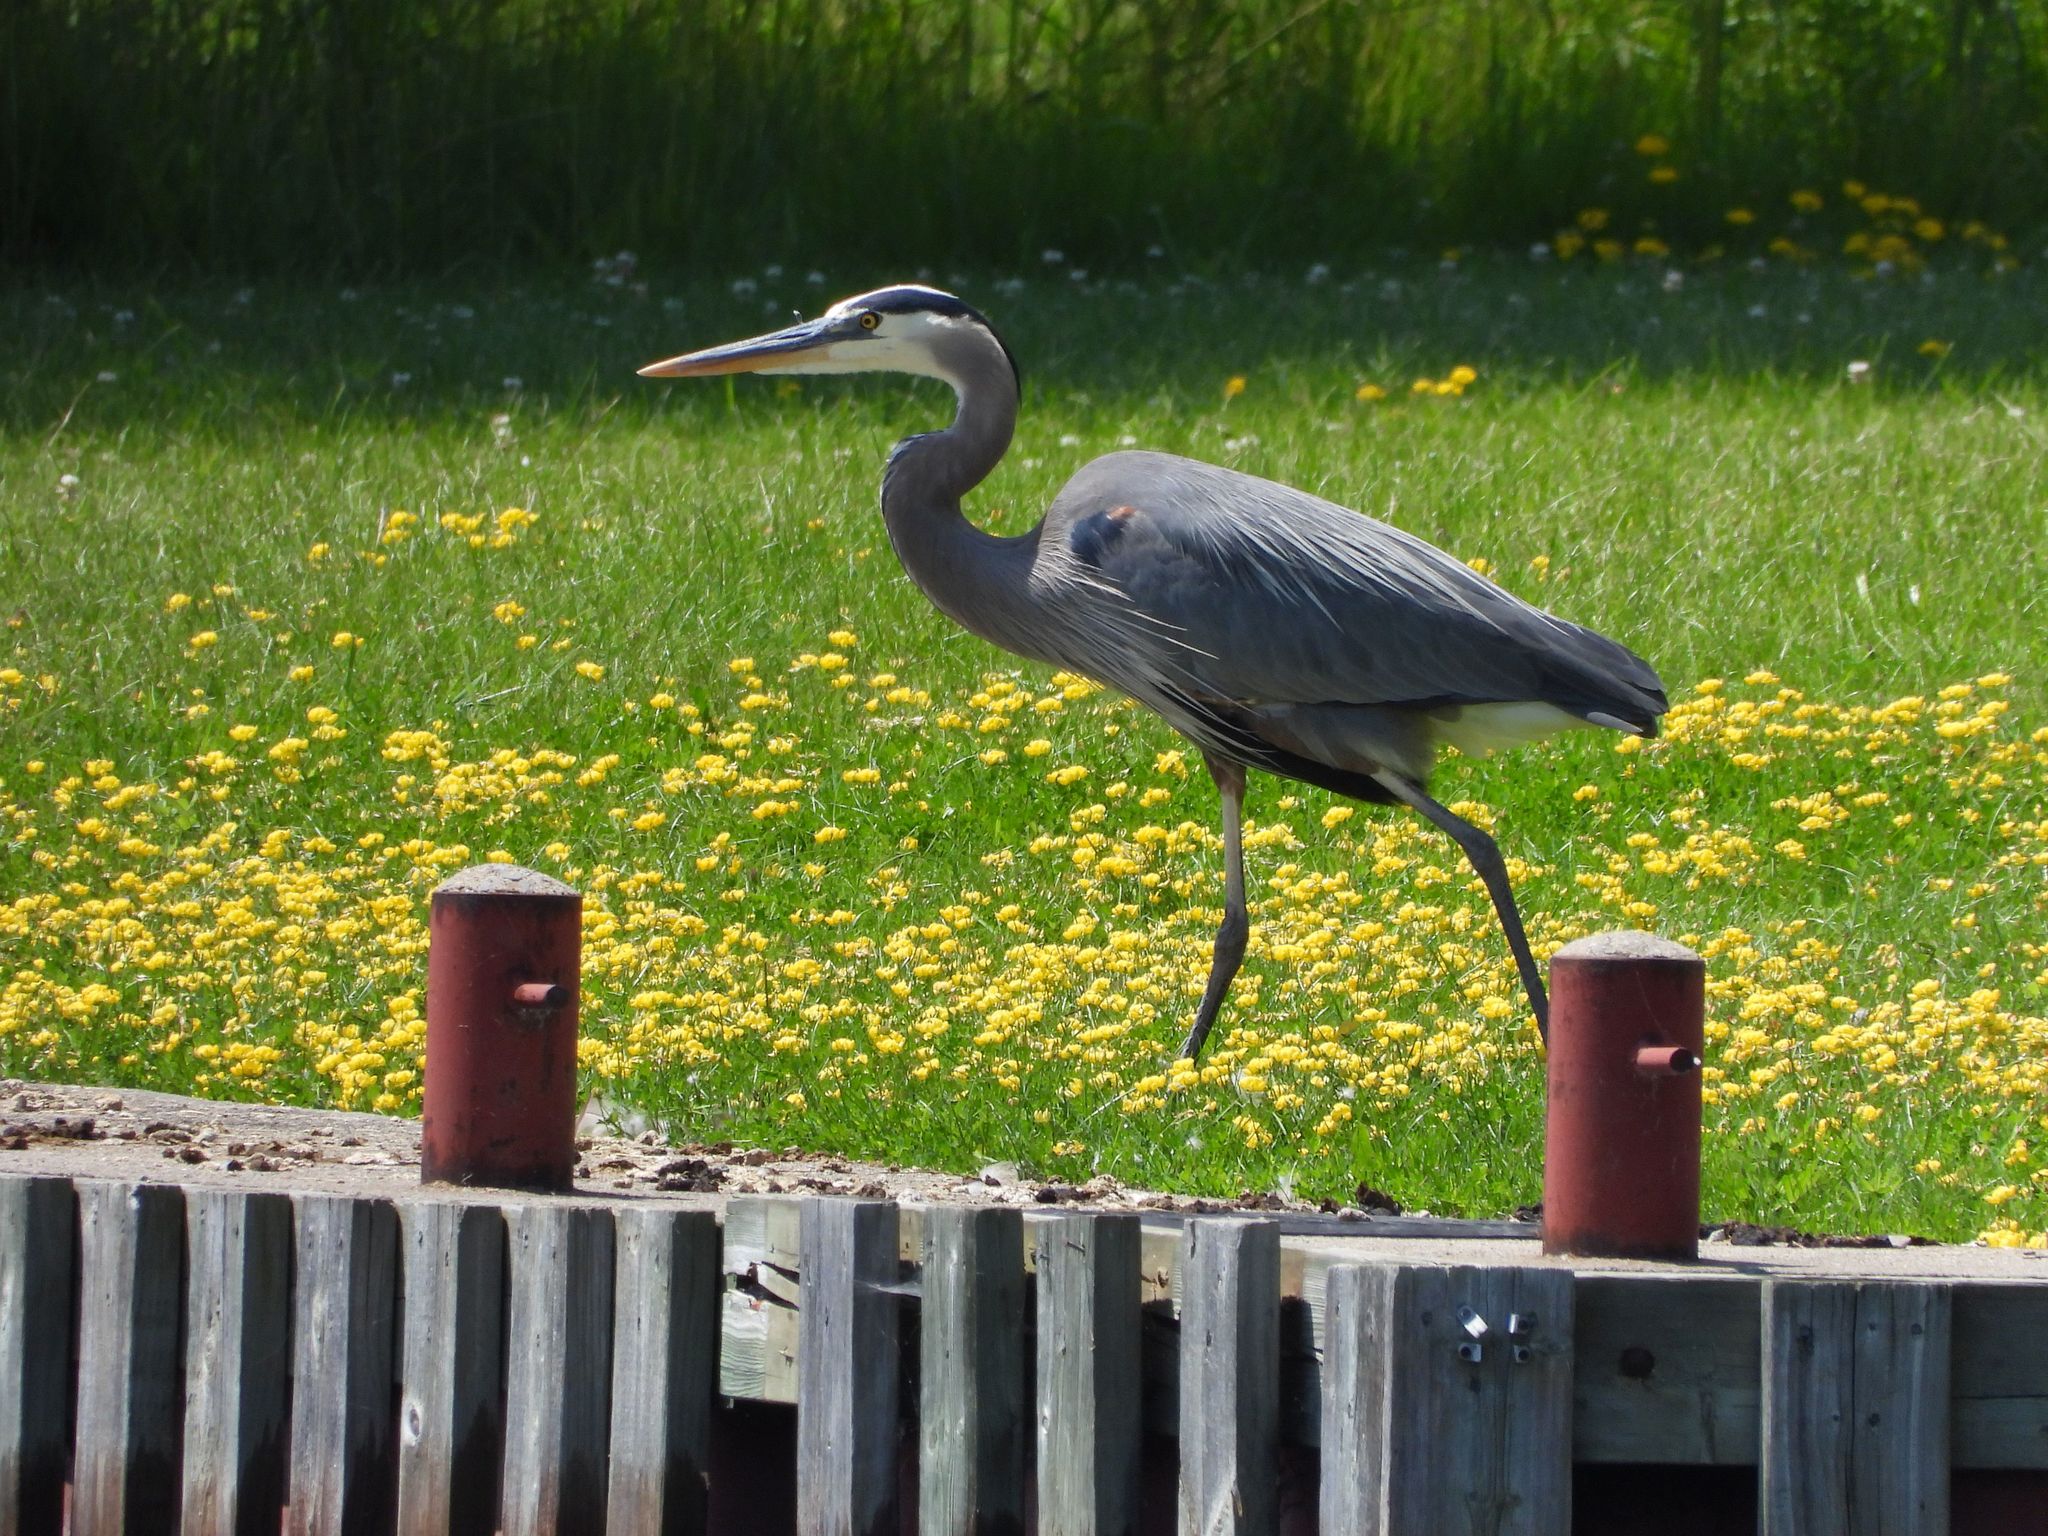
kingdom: Animalia
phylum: Chordata
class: Aves
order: Pelecaniformes
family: Ardeidae
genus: Ardea
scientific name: Ardea herodias
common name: Great blue heron
